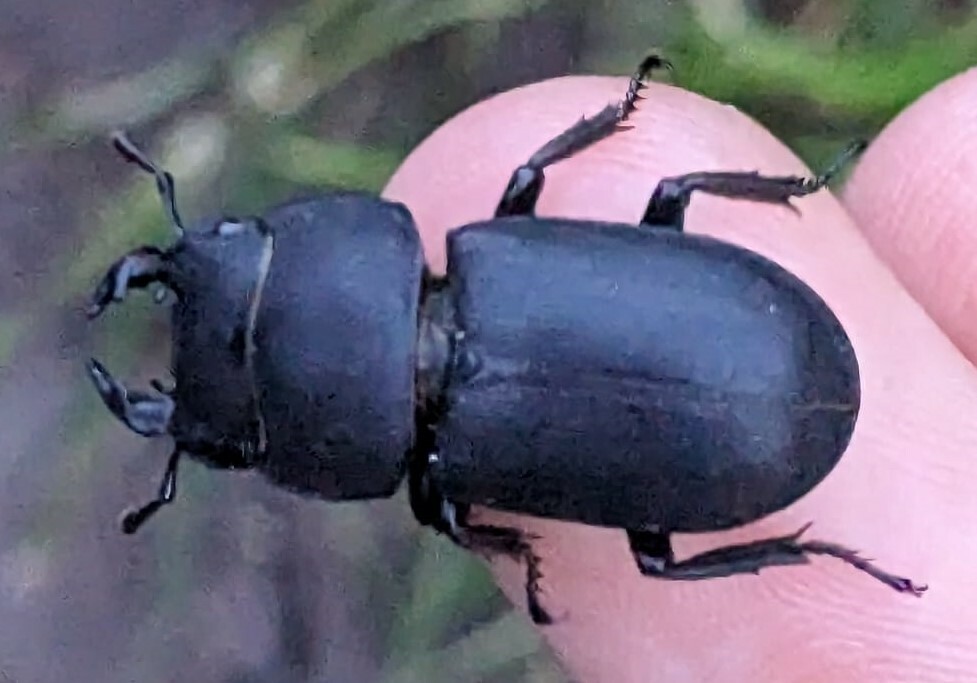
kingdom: Animalia
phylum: Arthropoda
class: Insecta
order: Coleoptera
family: Lucanidae
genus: Dorcus
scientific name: Dorcus parallelipipedus
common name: Lesser stag beetle
